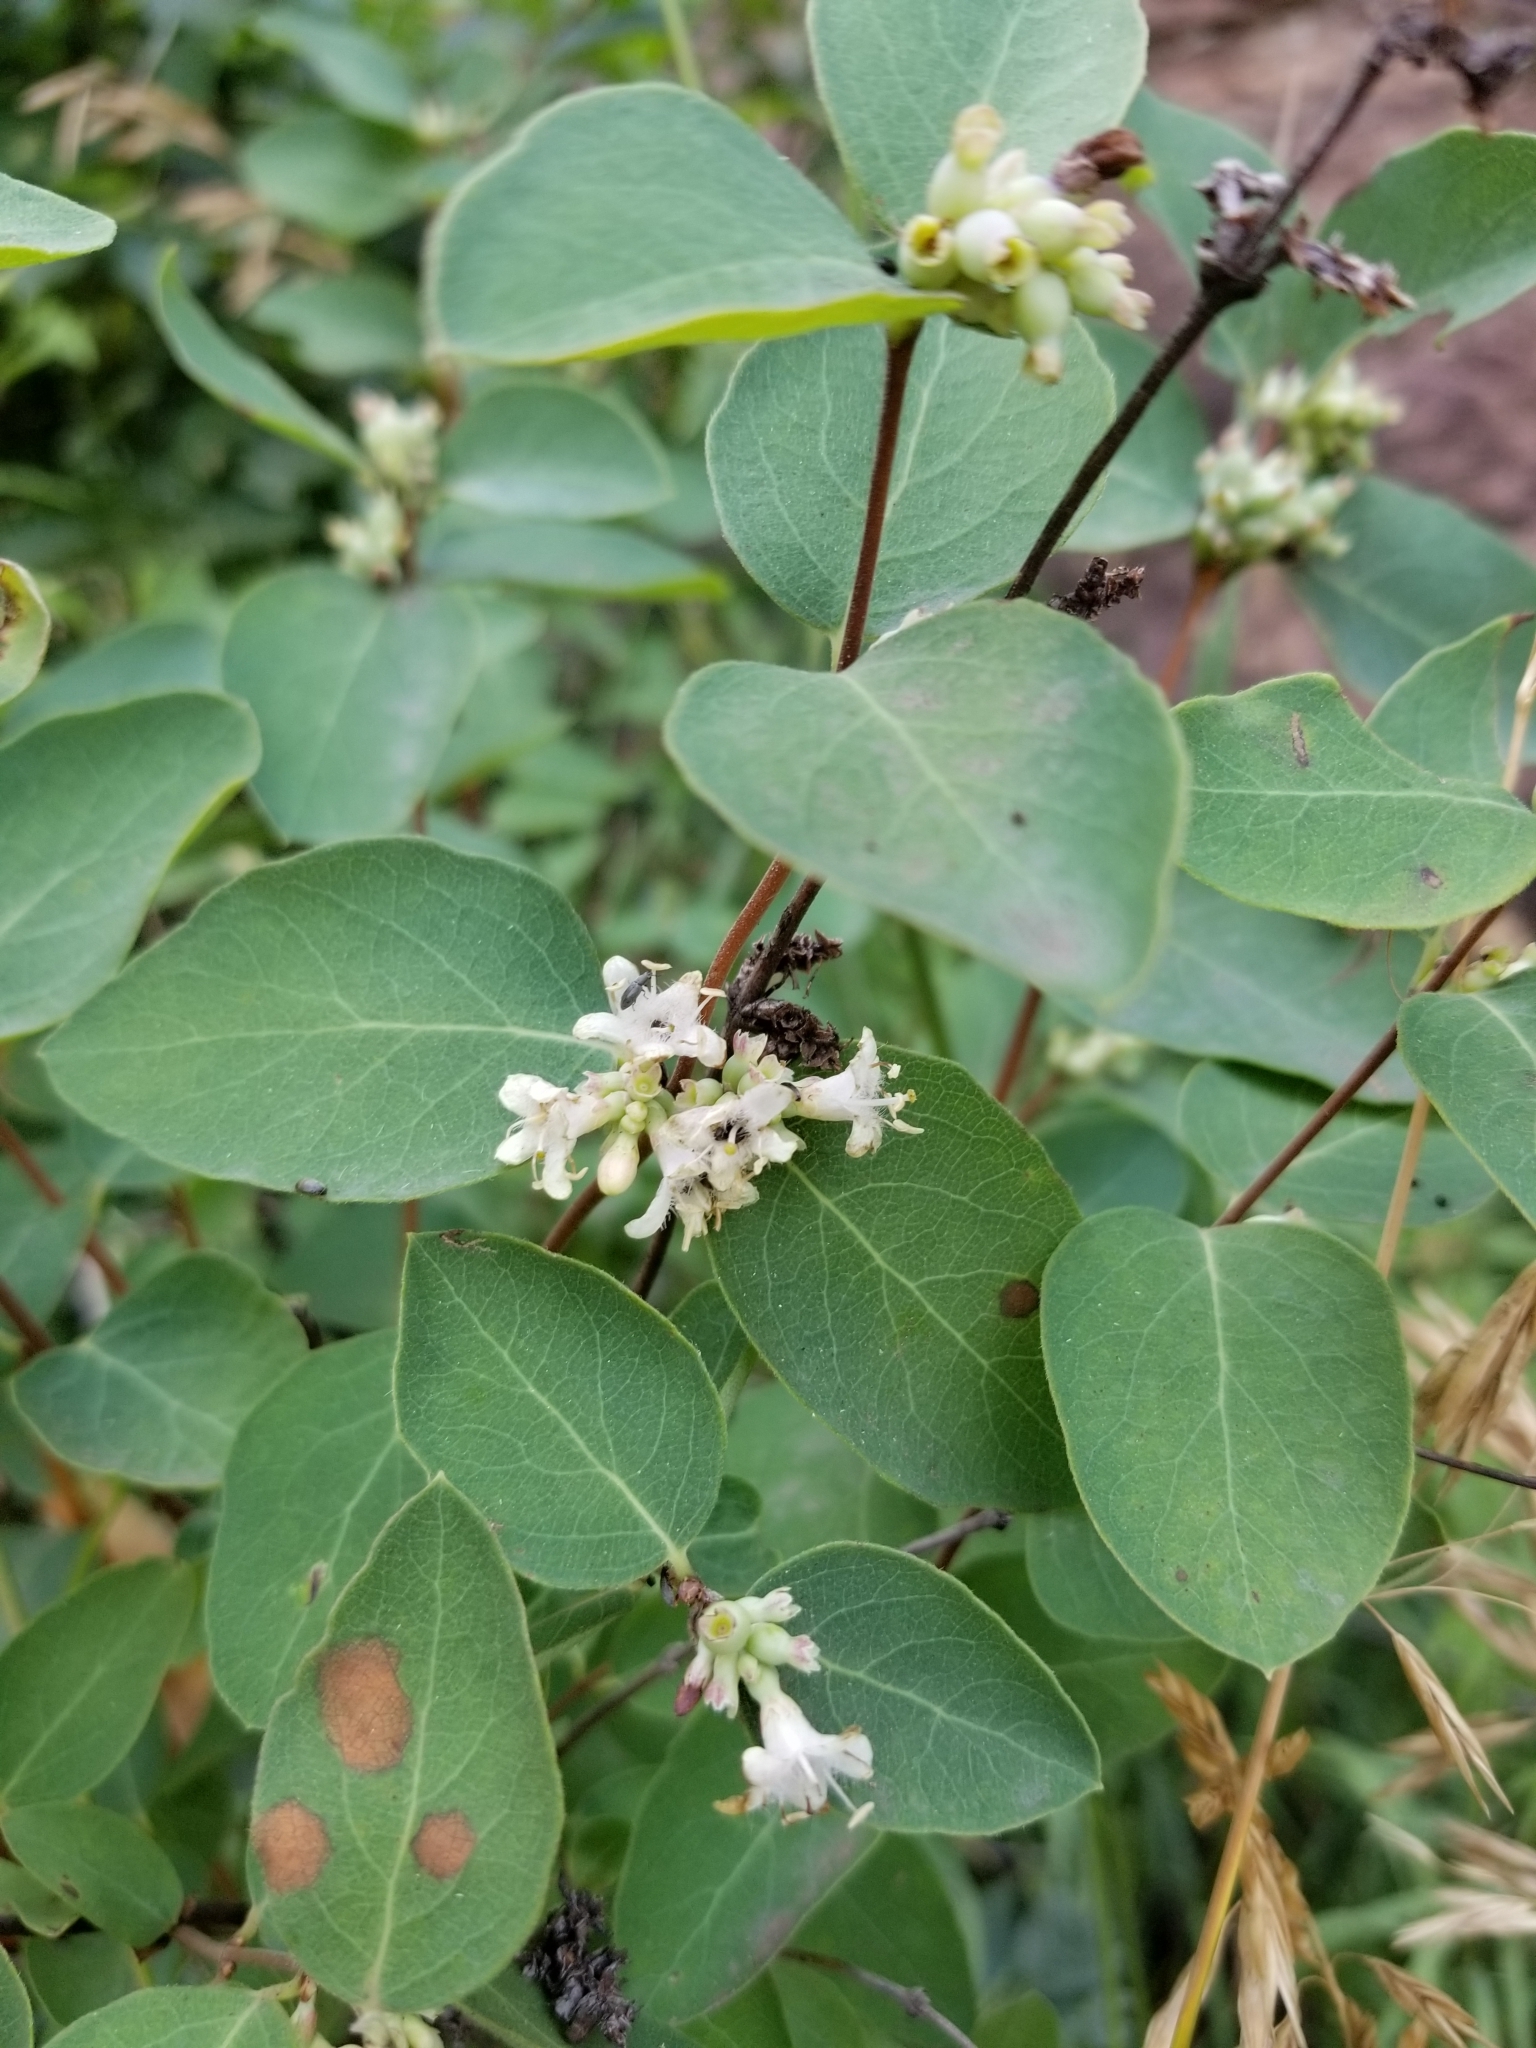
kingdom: Plantae
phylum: Tracheophyta
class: Magnoliopsida
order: Dipsacales
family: Caprifoliaceae
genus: Symphoricarpos
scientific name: Symphoricarpos occidentalis
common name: Wolfberry
